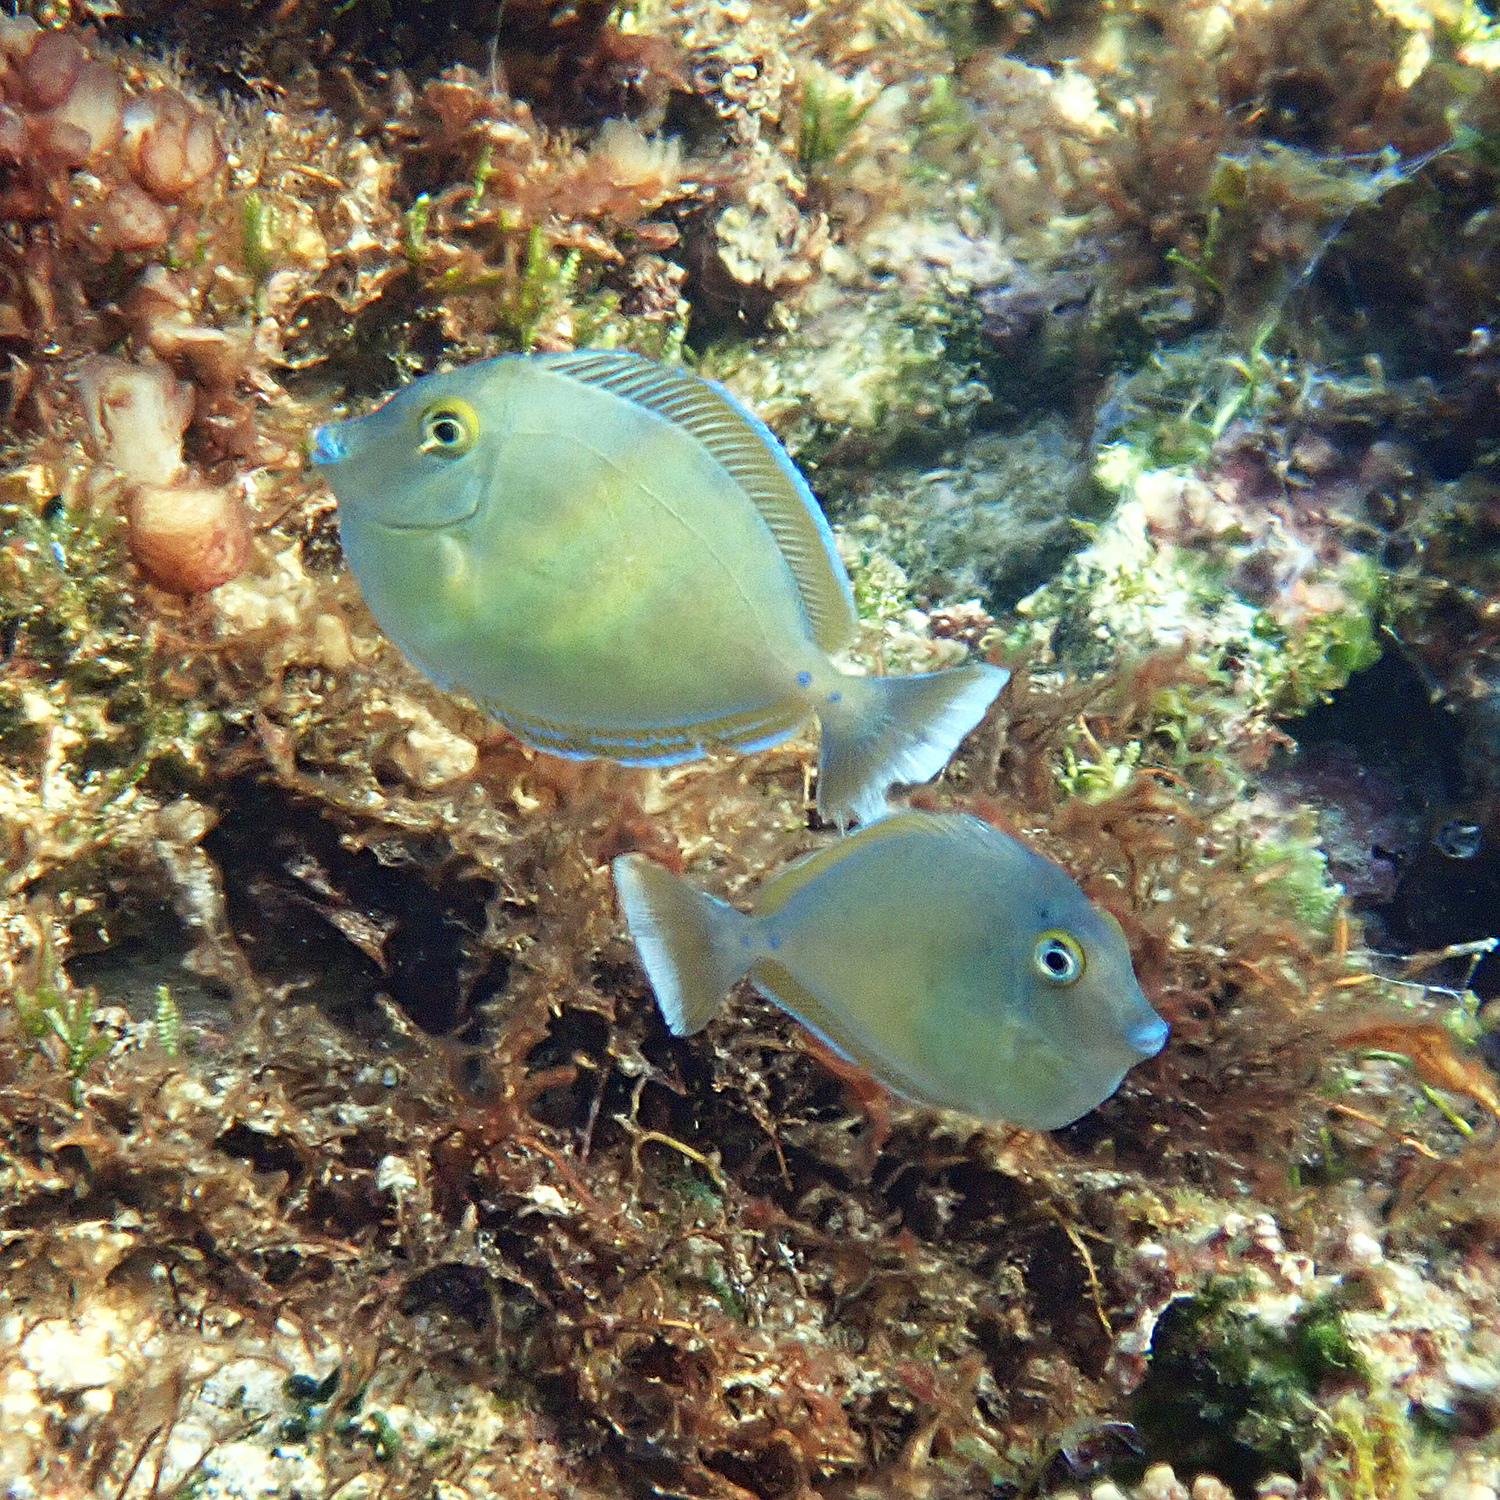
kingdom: Animalia
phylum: Chordata
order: Perciformes
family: Acanthuridae
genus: Naso
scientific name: Naso unicornis
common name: Bluespine unicornfish
